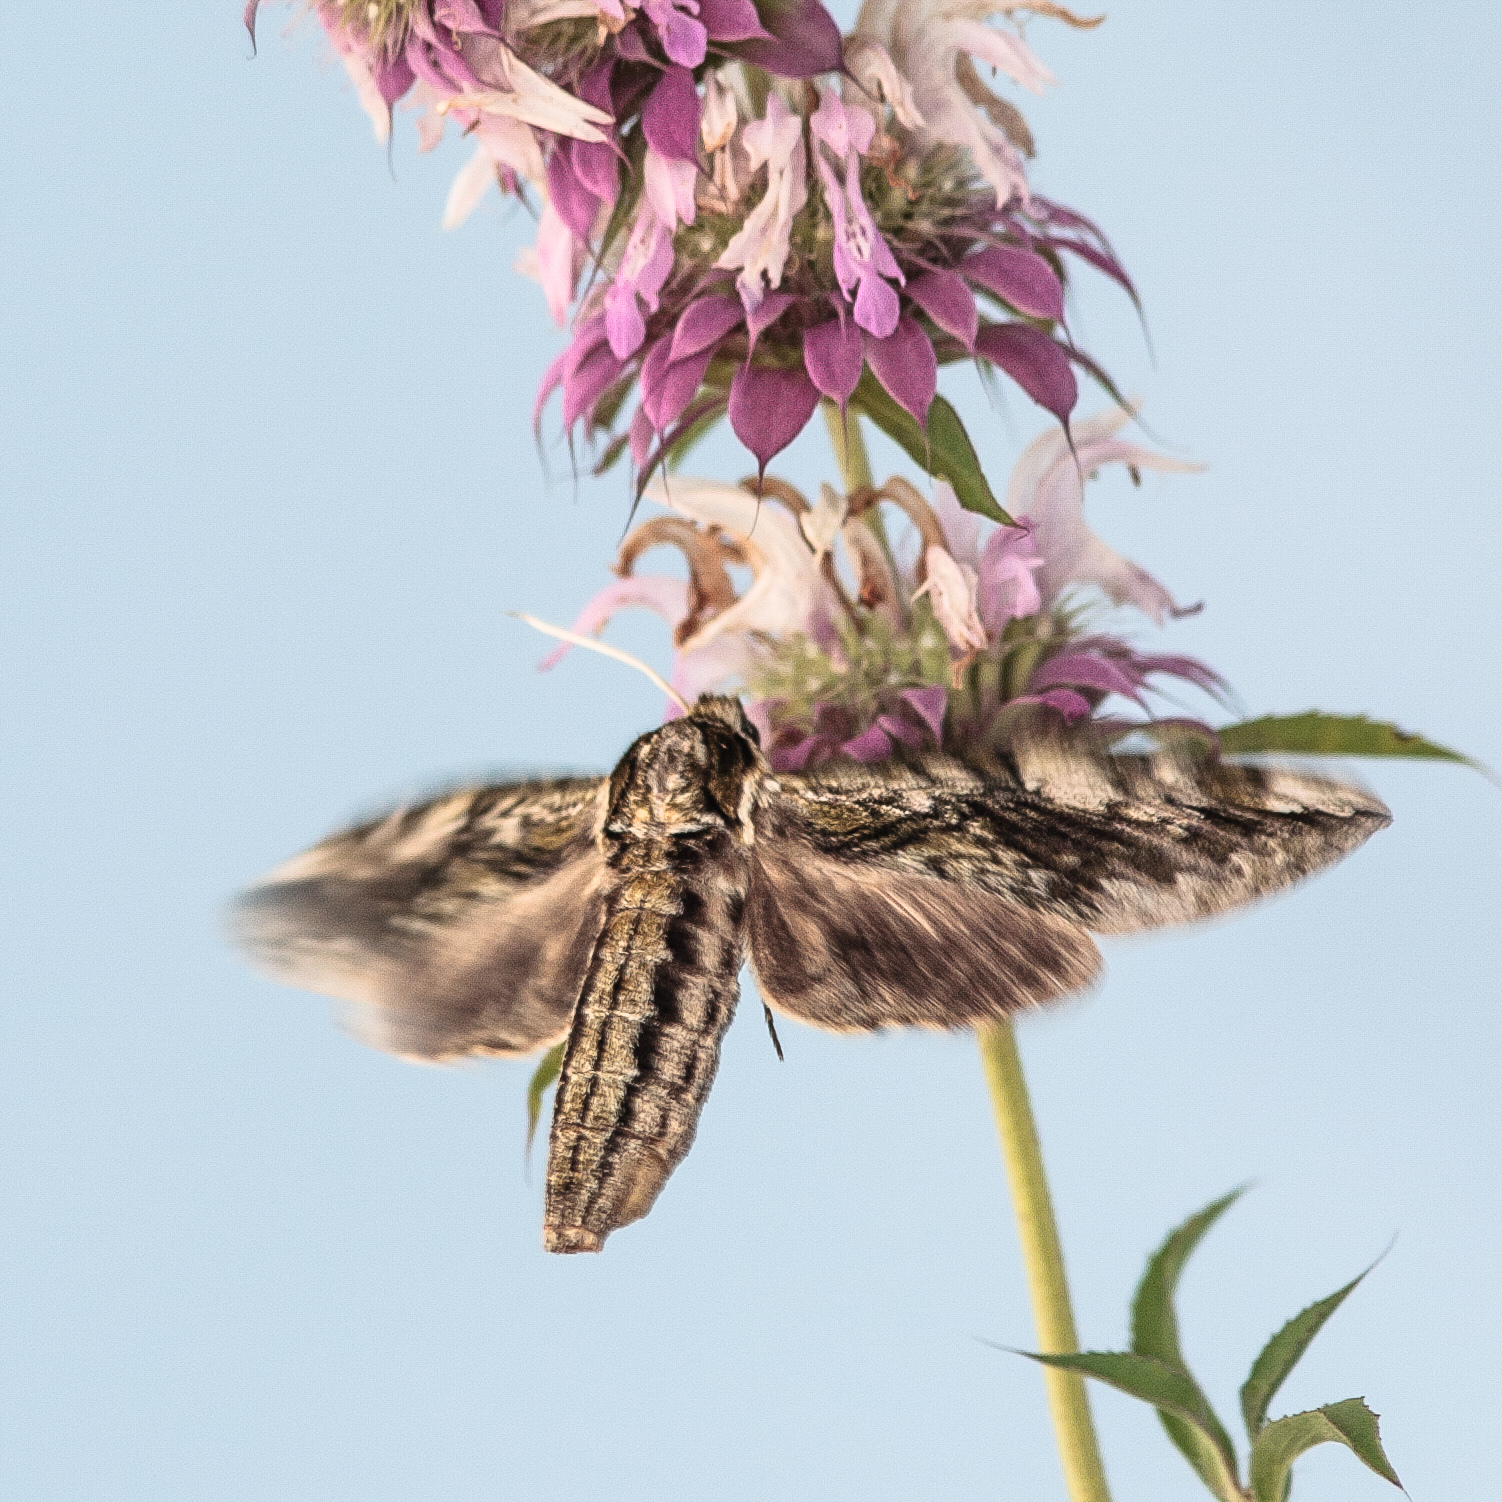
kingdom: Animalia
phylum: Arthropoda
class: Insecta
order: Lepidoptera
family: Sphingidae
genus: Ceratomia
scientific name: Ceratomia hageni
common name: Hagen's sphinx
